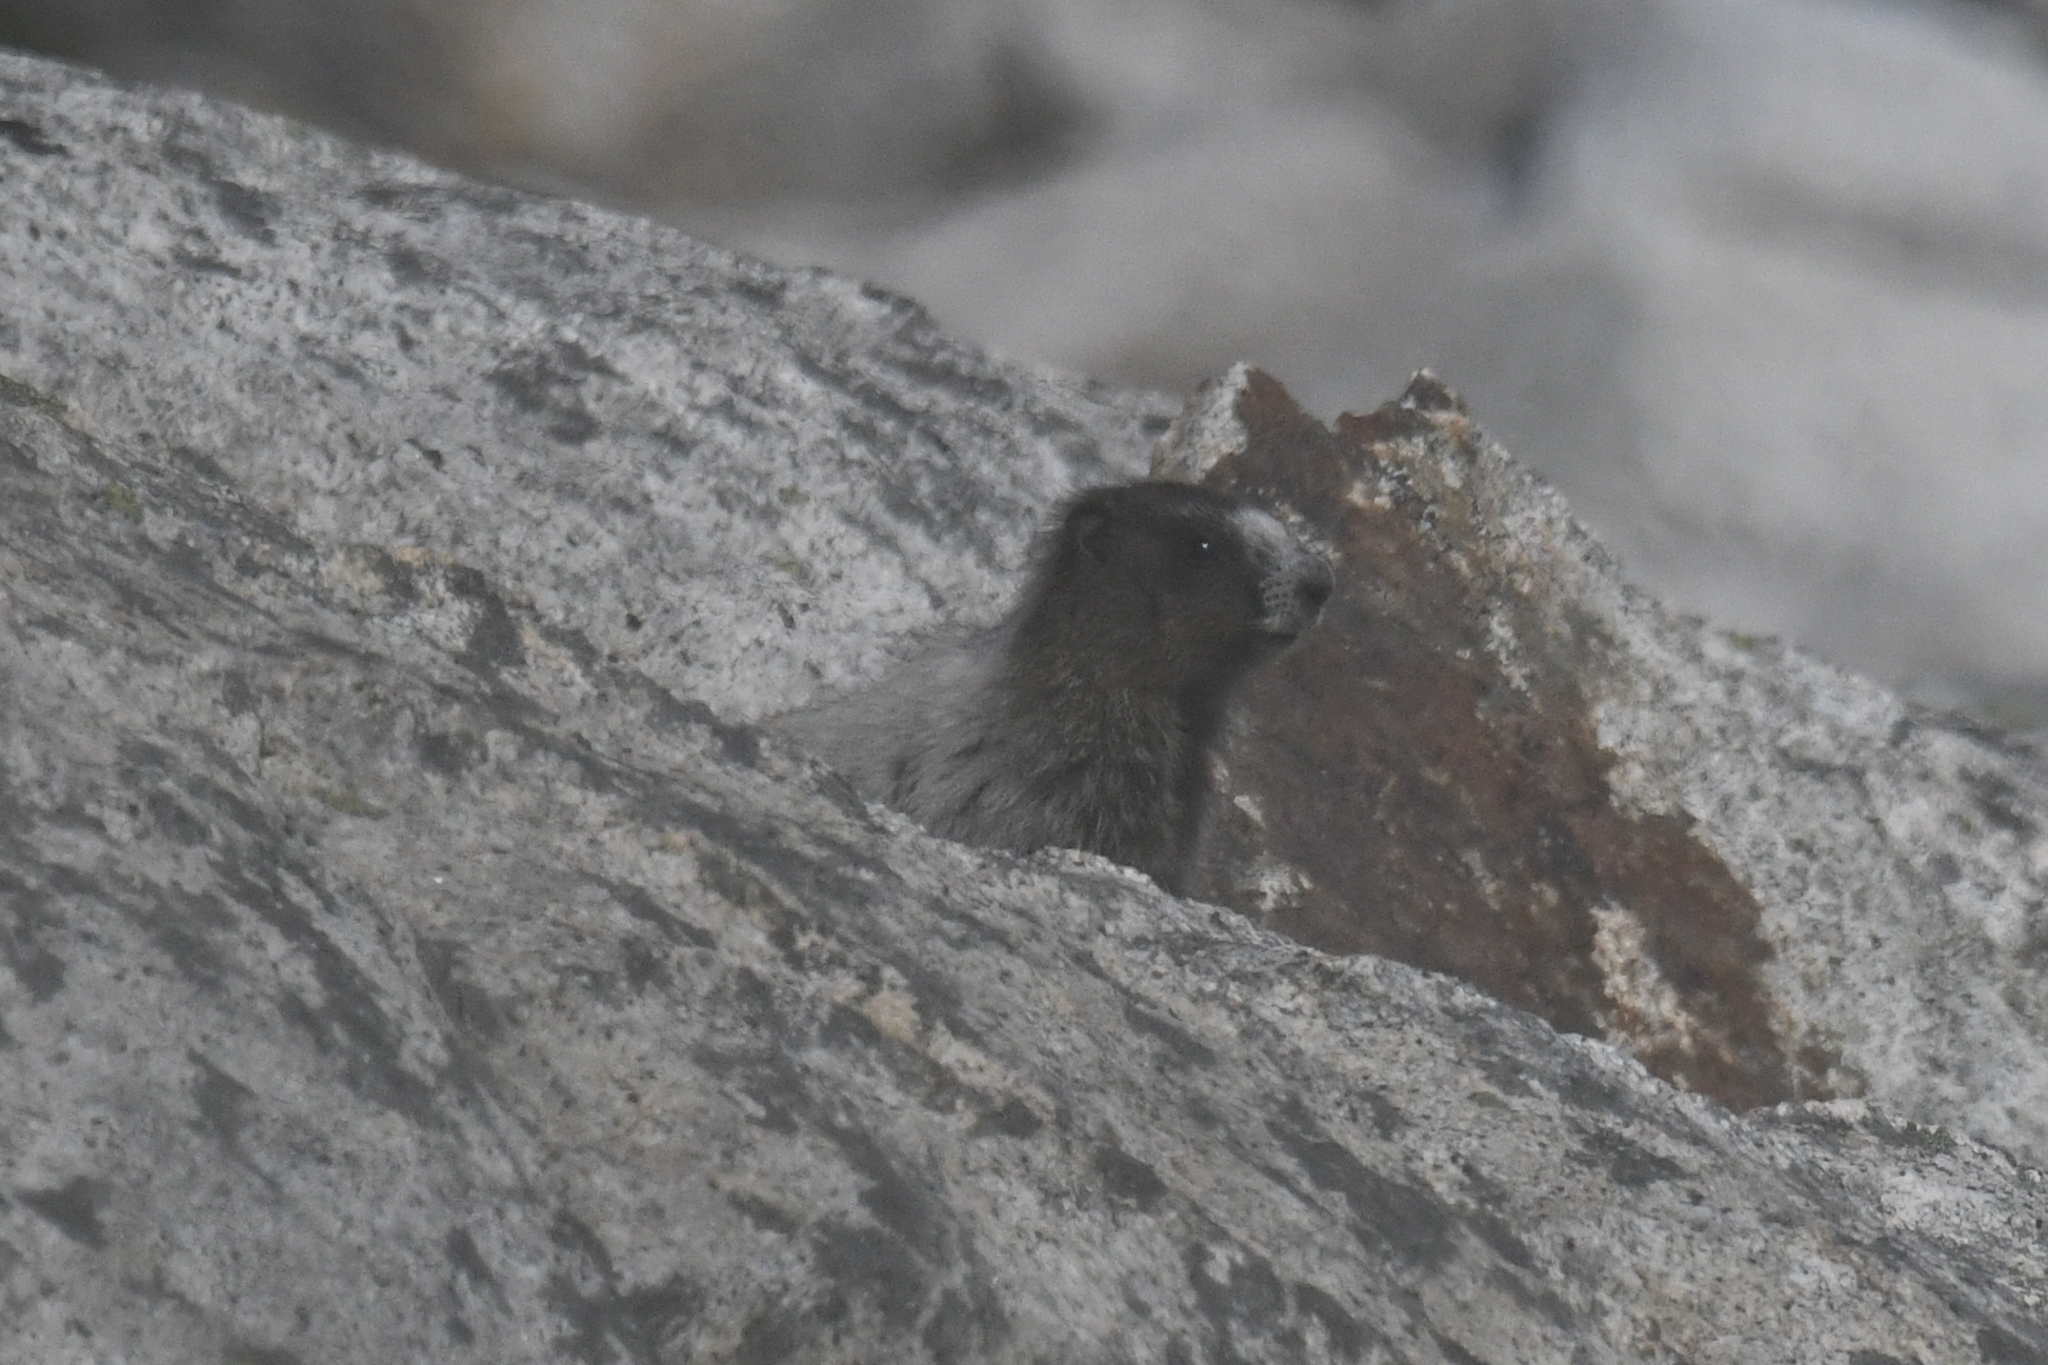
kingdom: Animalia
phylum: Chordata
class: Mammalia
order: Rodentia
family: Sciuridae
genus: Marmota
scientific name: Marmota caligata
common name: Hoary marmot
